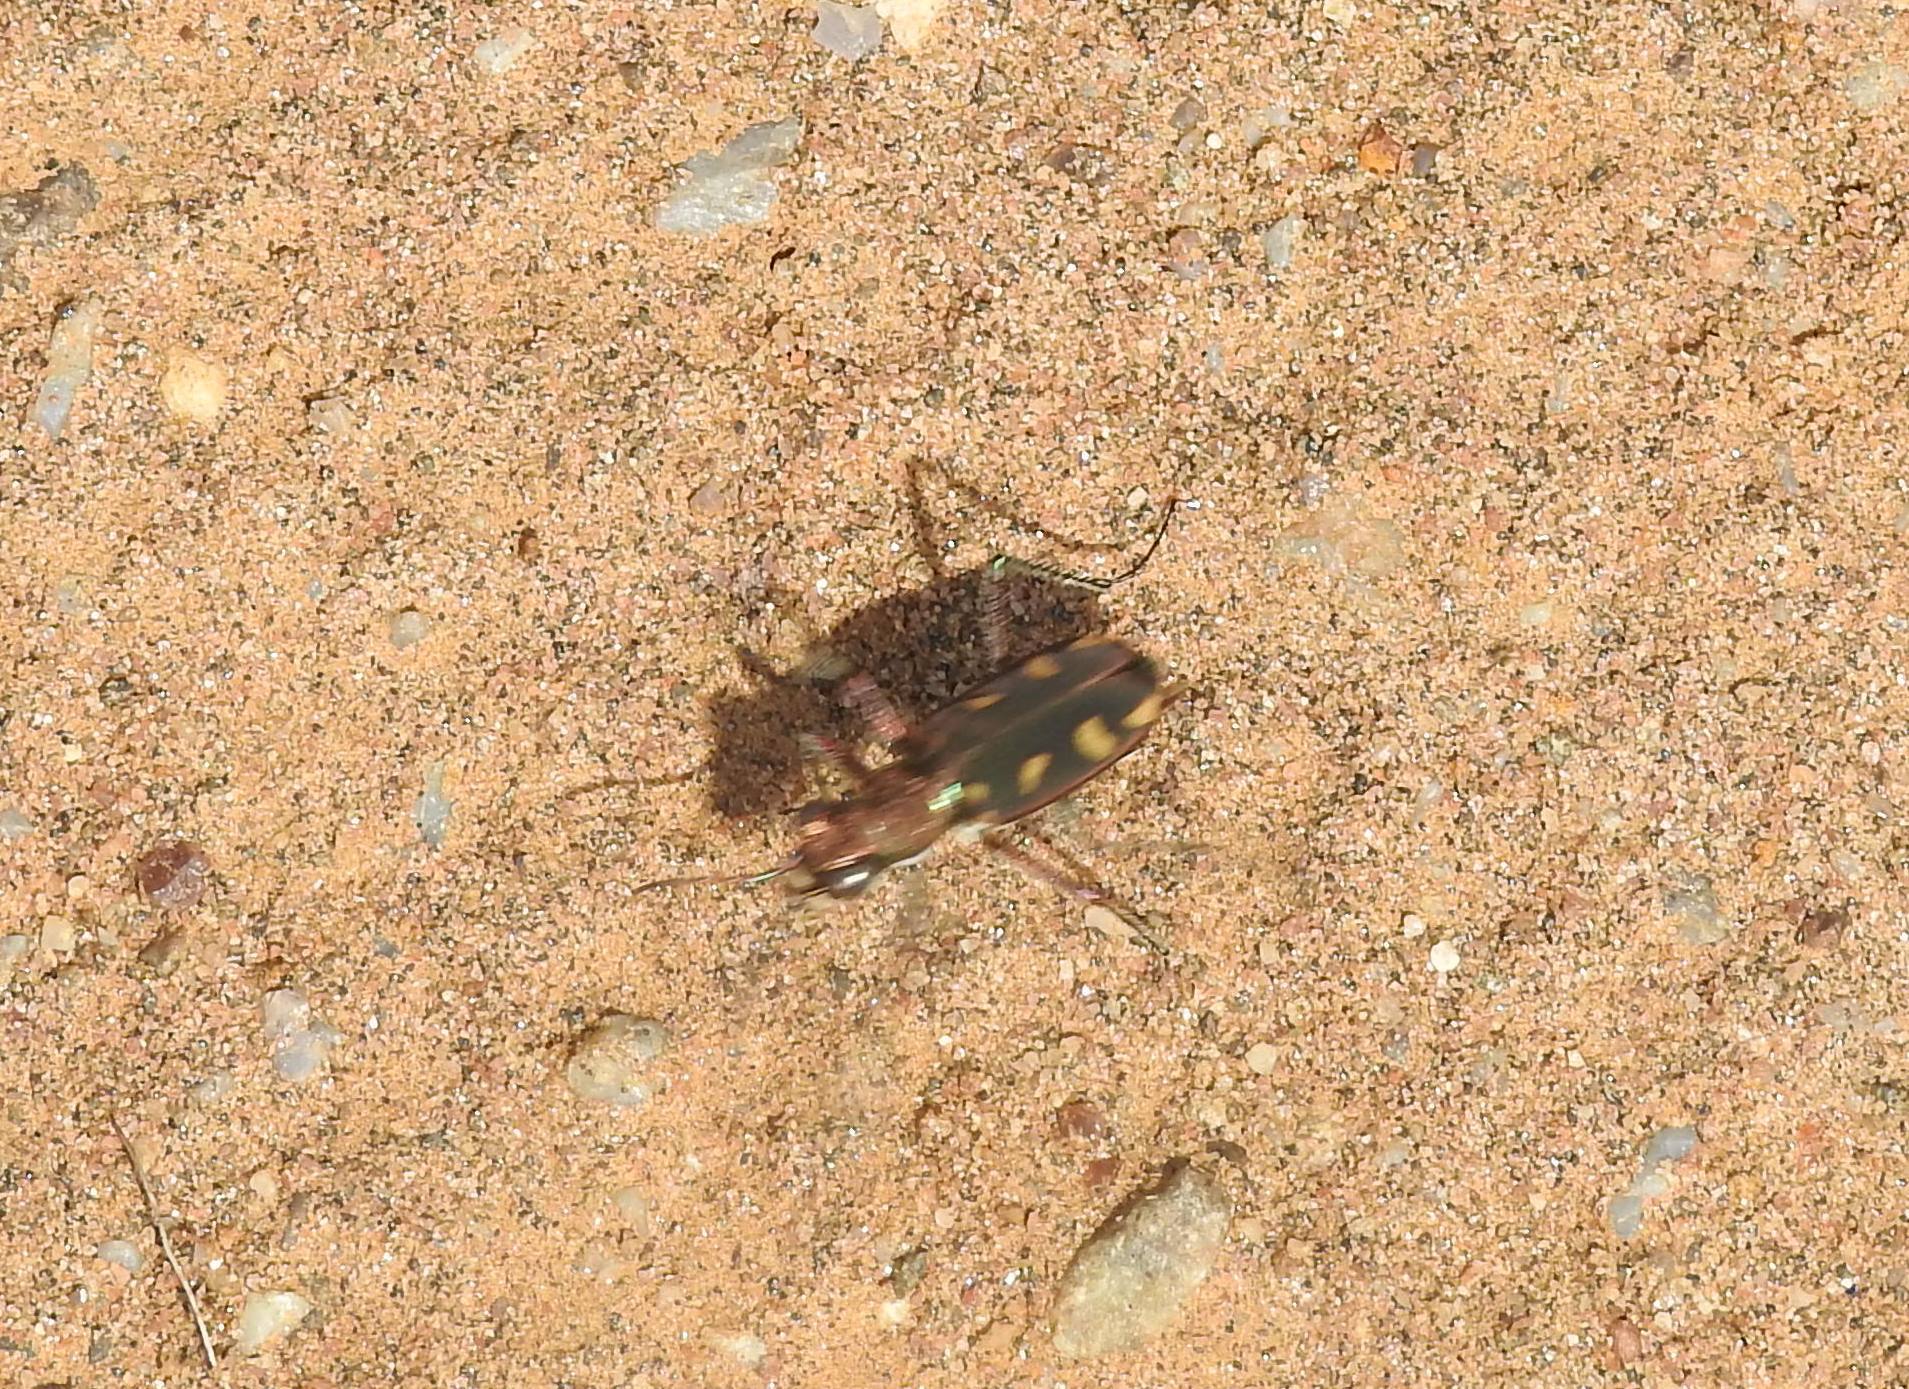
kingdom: Animalia
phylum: Arthropoda
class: Insecta
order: Coleoptera
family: Carabidae
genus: Cicindela
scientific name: Cicindela calligramma
